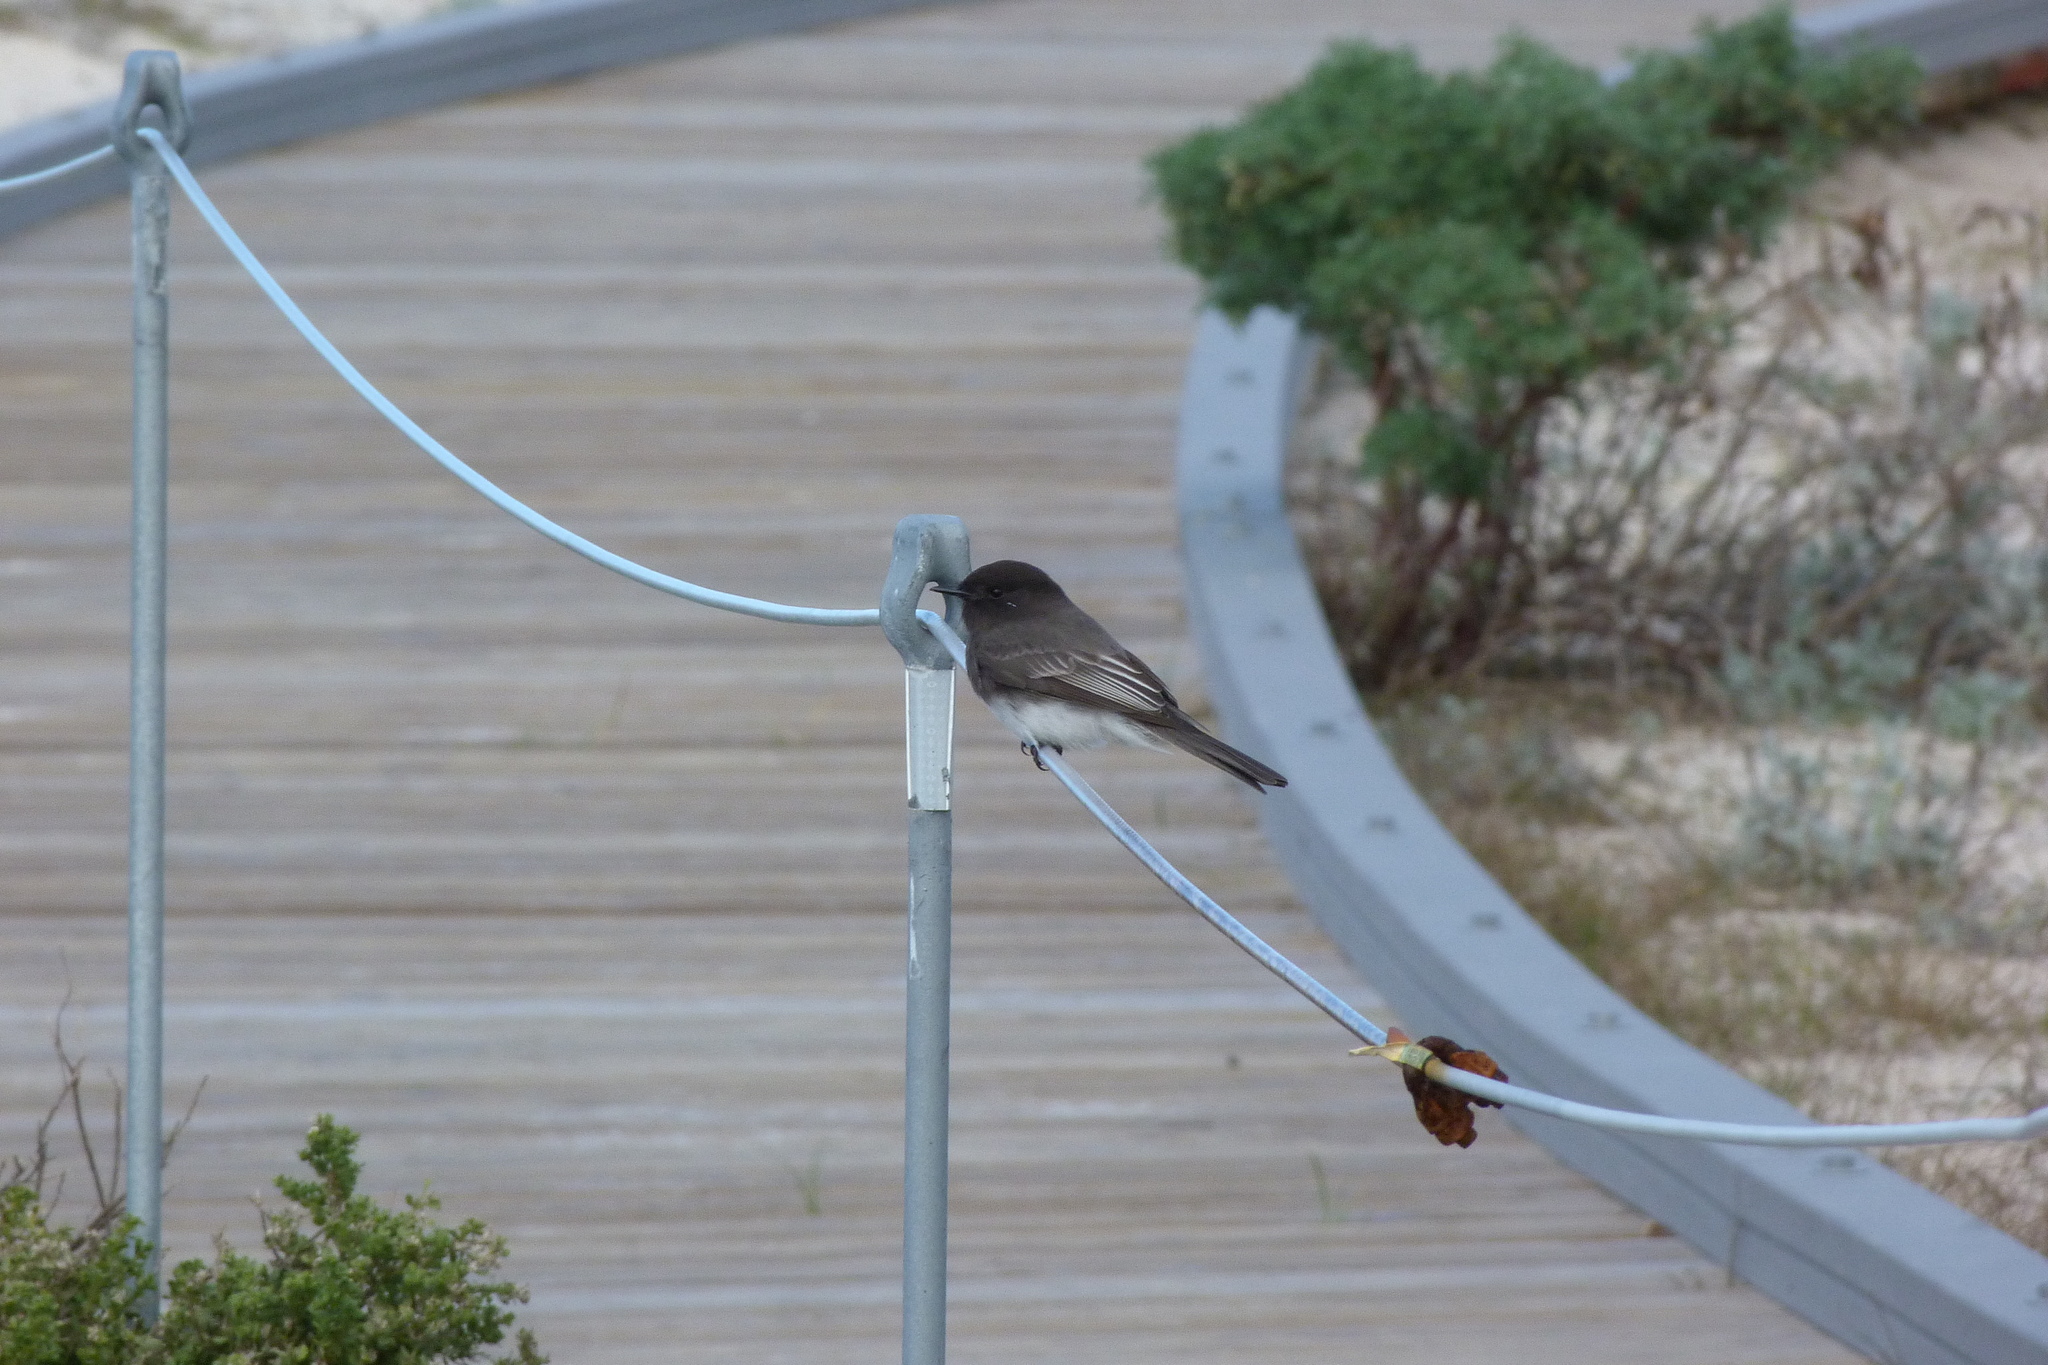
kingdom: Animalia
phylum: Chordata
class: Aves
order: Passeriformes
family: Tyrannidae
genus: Sayornis
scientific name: Sayornis nigricans
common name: Black phoebe
